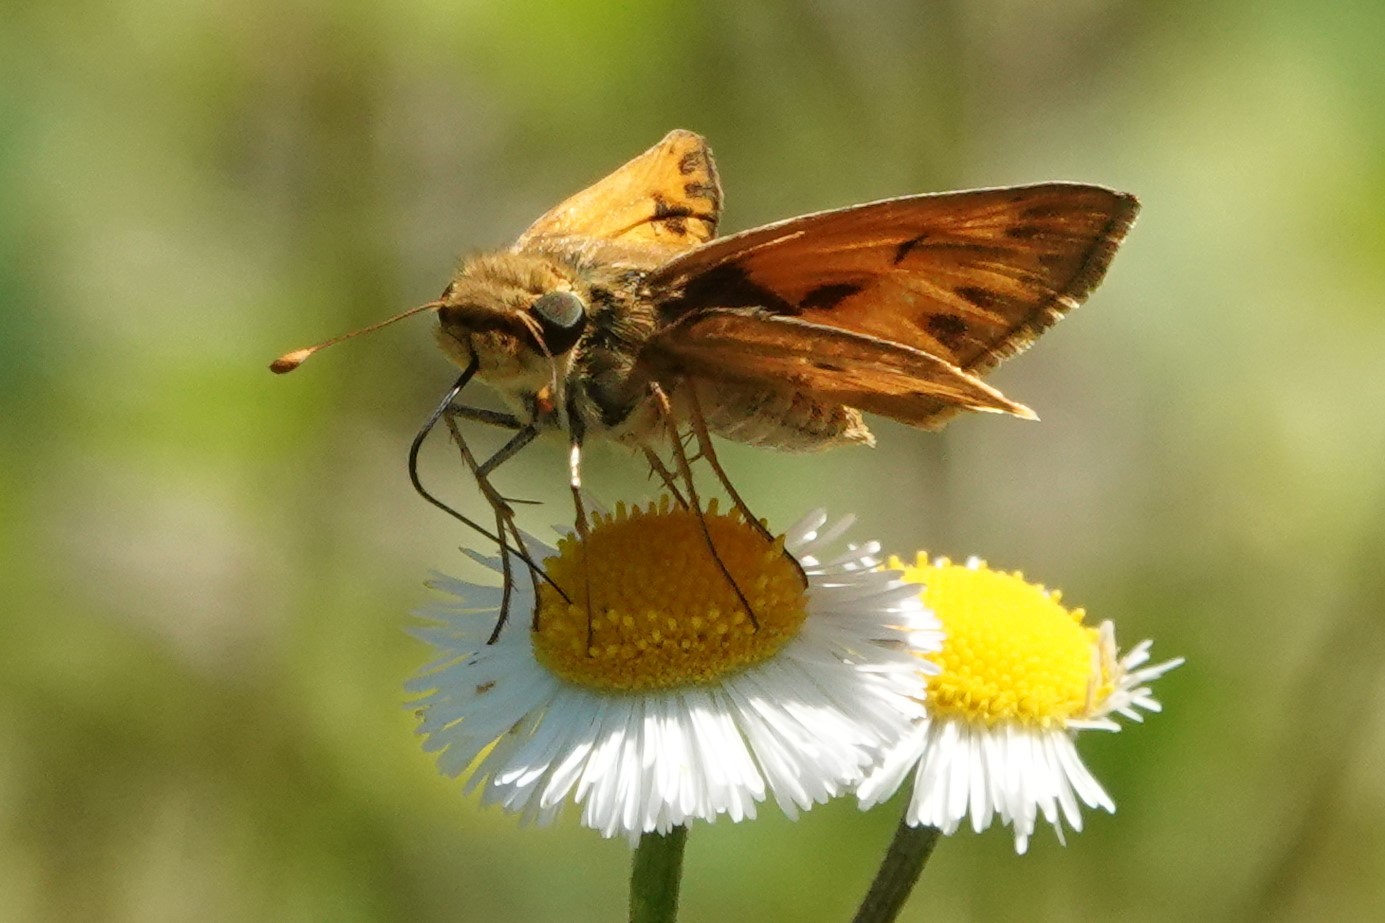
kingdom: Animalia
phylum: Arthropoda
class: Insecta
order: Lepidoptera
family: Hesperiidae
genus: Hylephila
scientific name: Hylephila phyleus
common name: Fiery skipper
